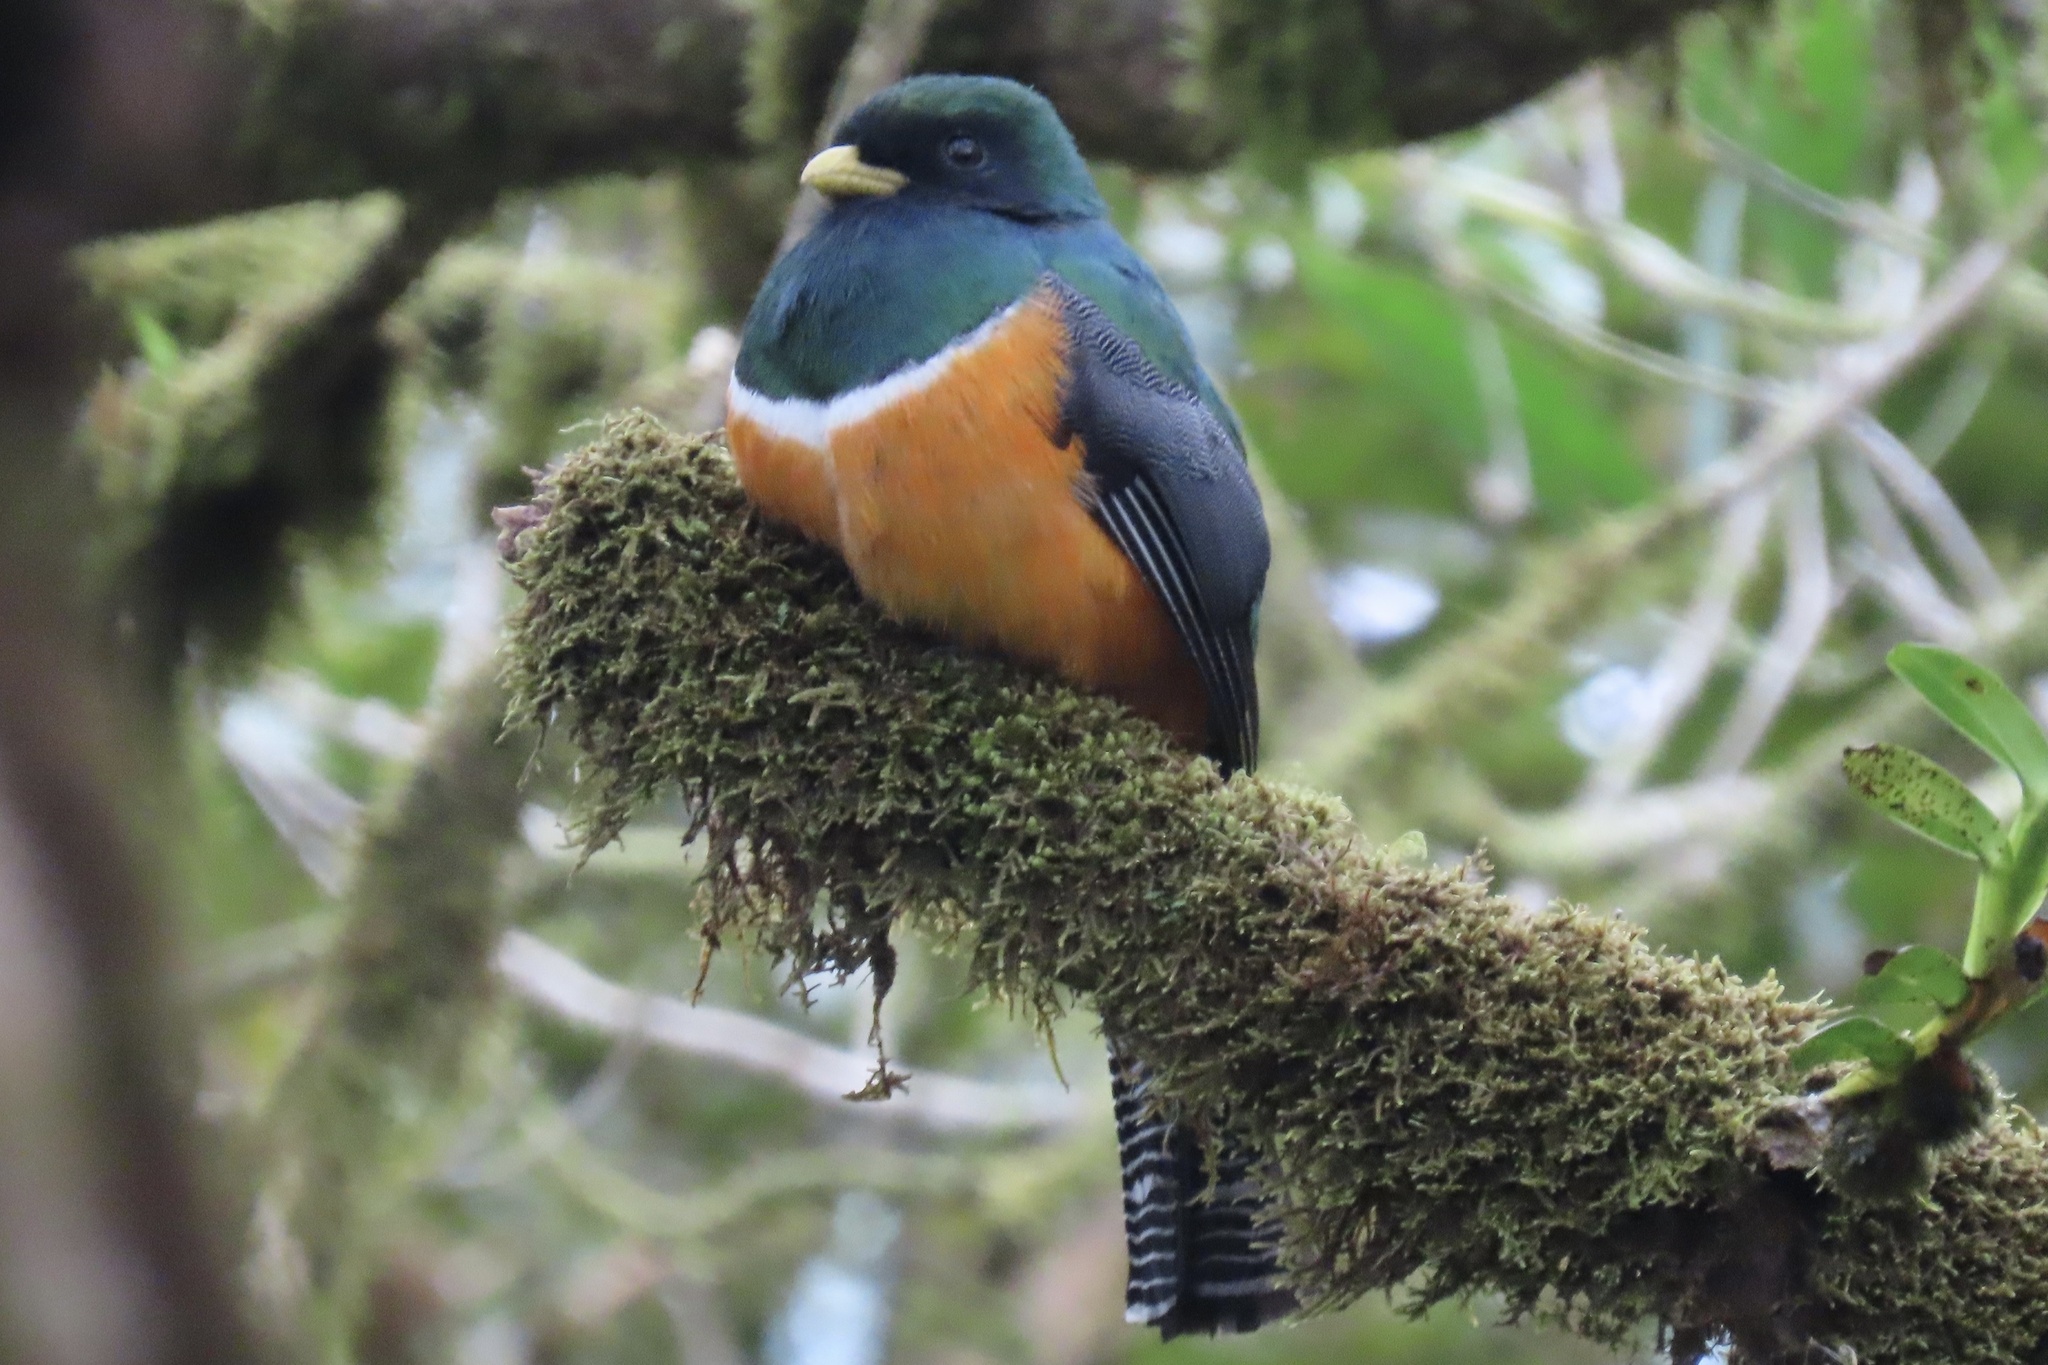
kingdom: Animalia
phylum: Chordata
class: Aves
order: Trogoniformes
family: Trogonidae
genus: Trogon
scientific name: Trogon collaris
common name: Collared trogon
